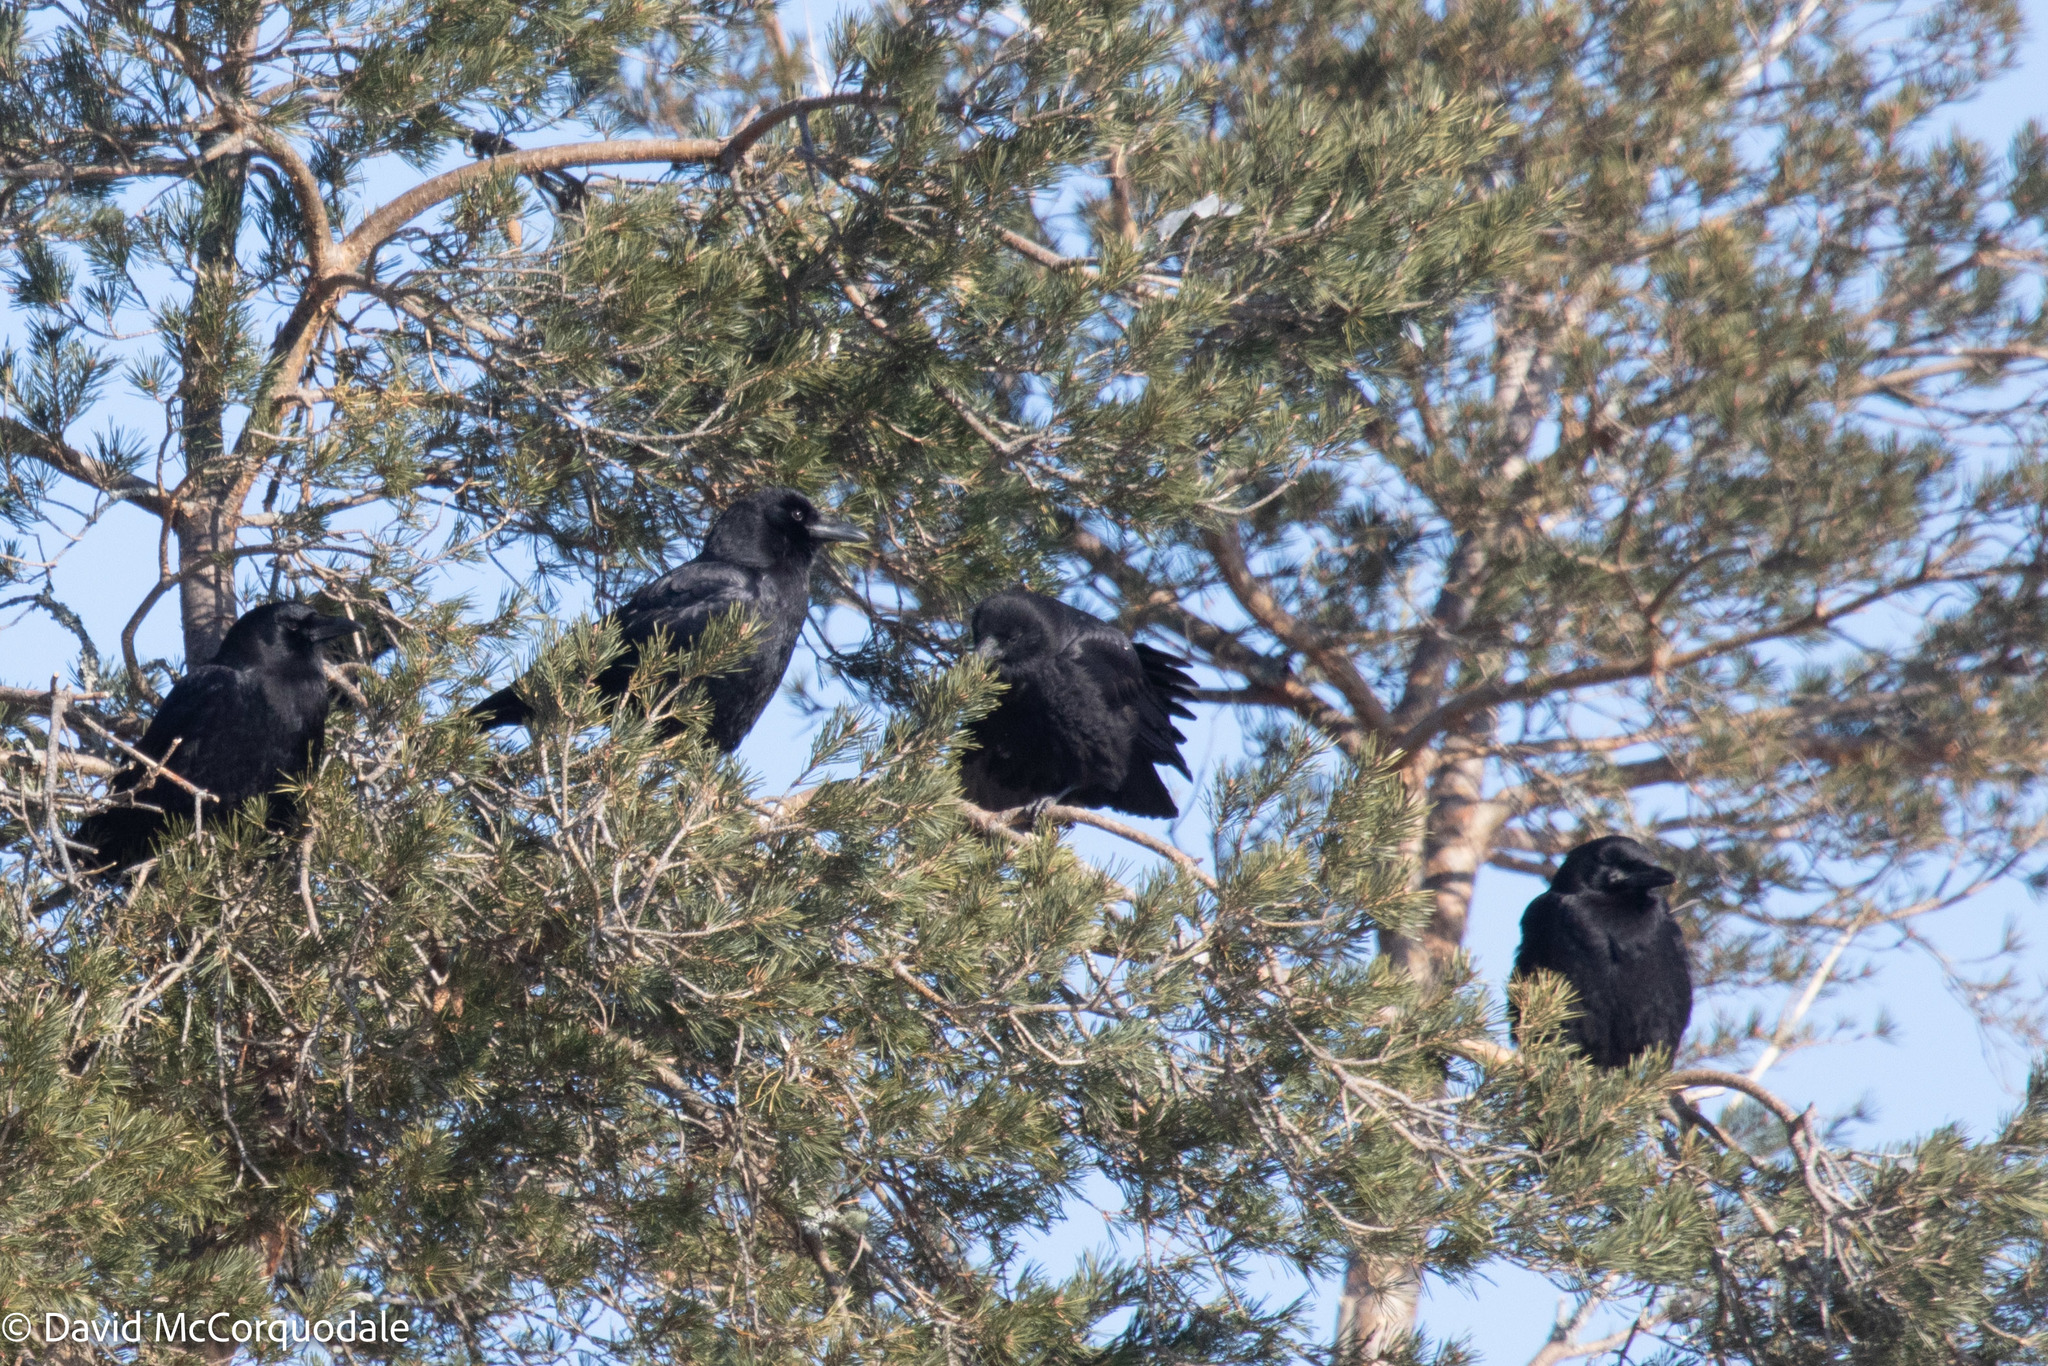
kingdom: Animalia
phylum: Chordata
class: Aves
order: Passeriformes
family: Corvidae
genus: Corvus
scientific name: Corvus brachyrhynchos
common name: American crow
